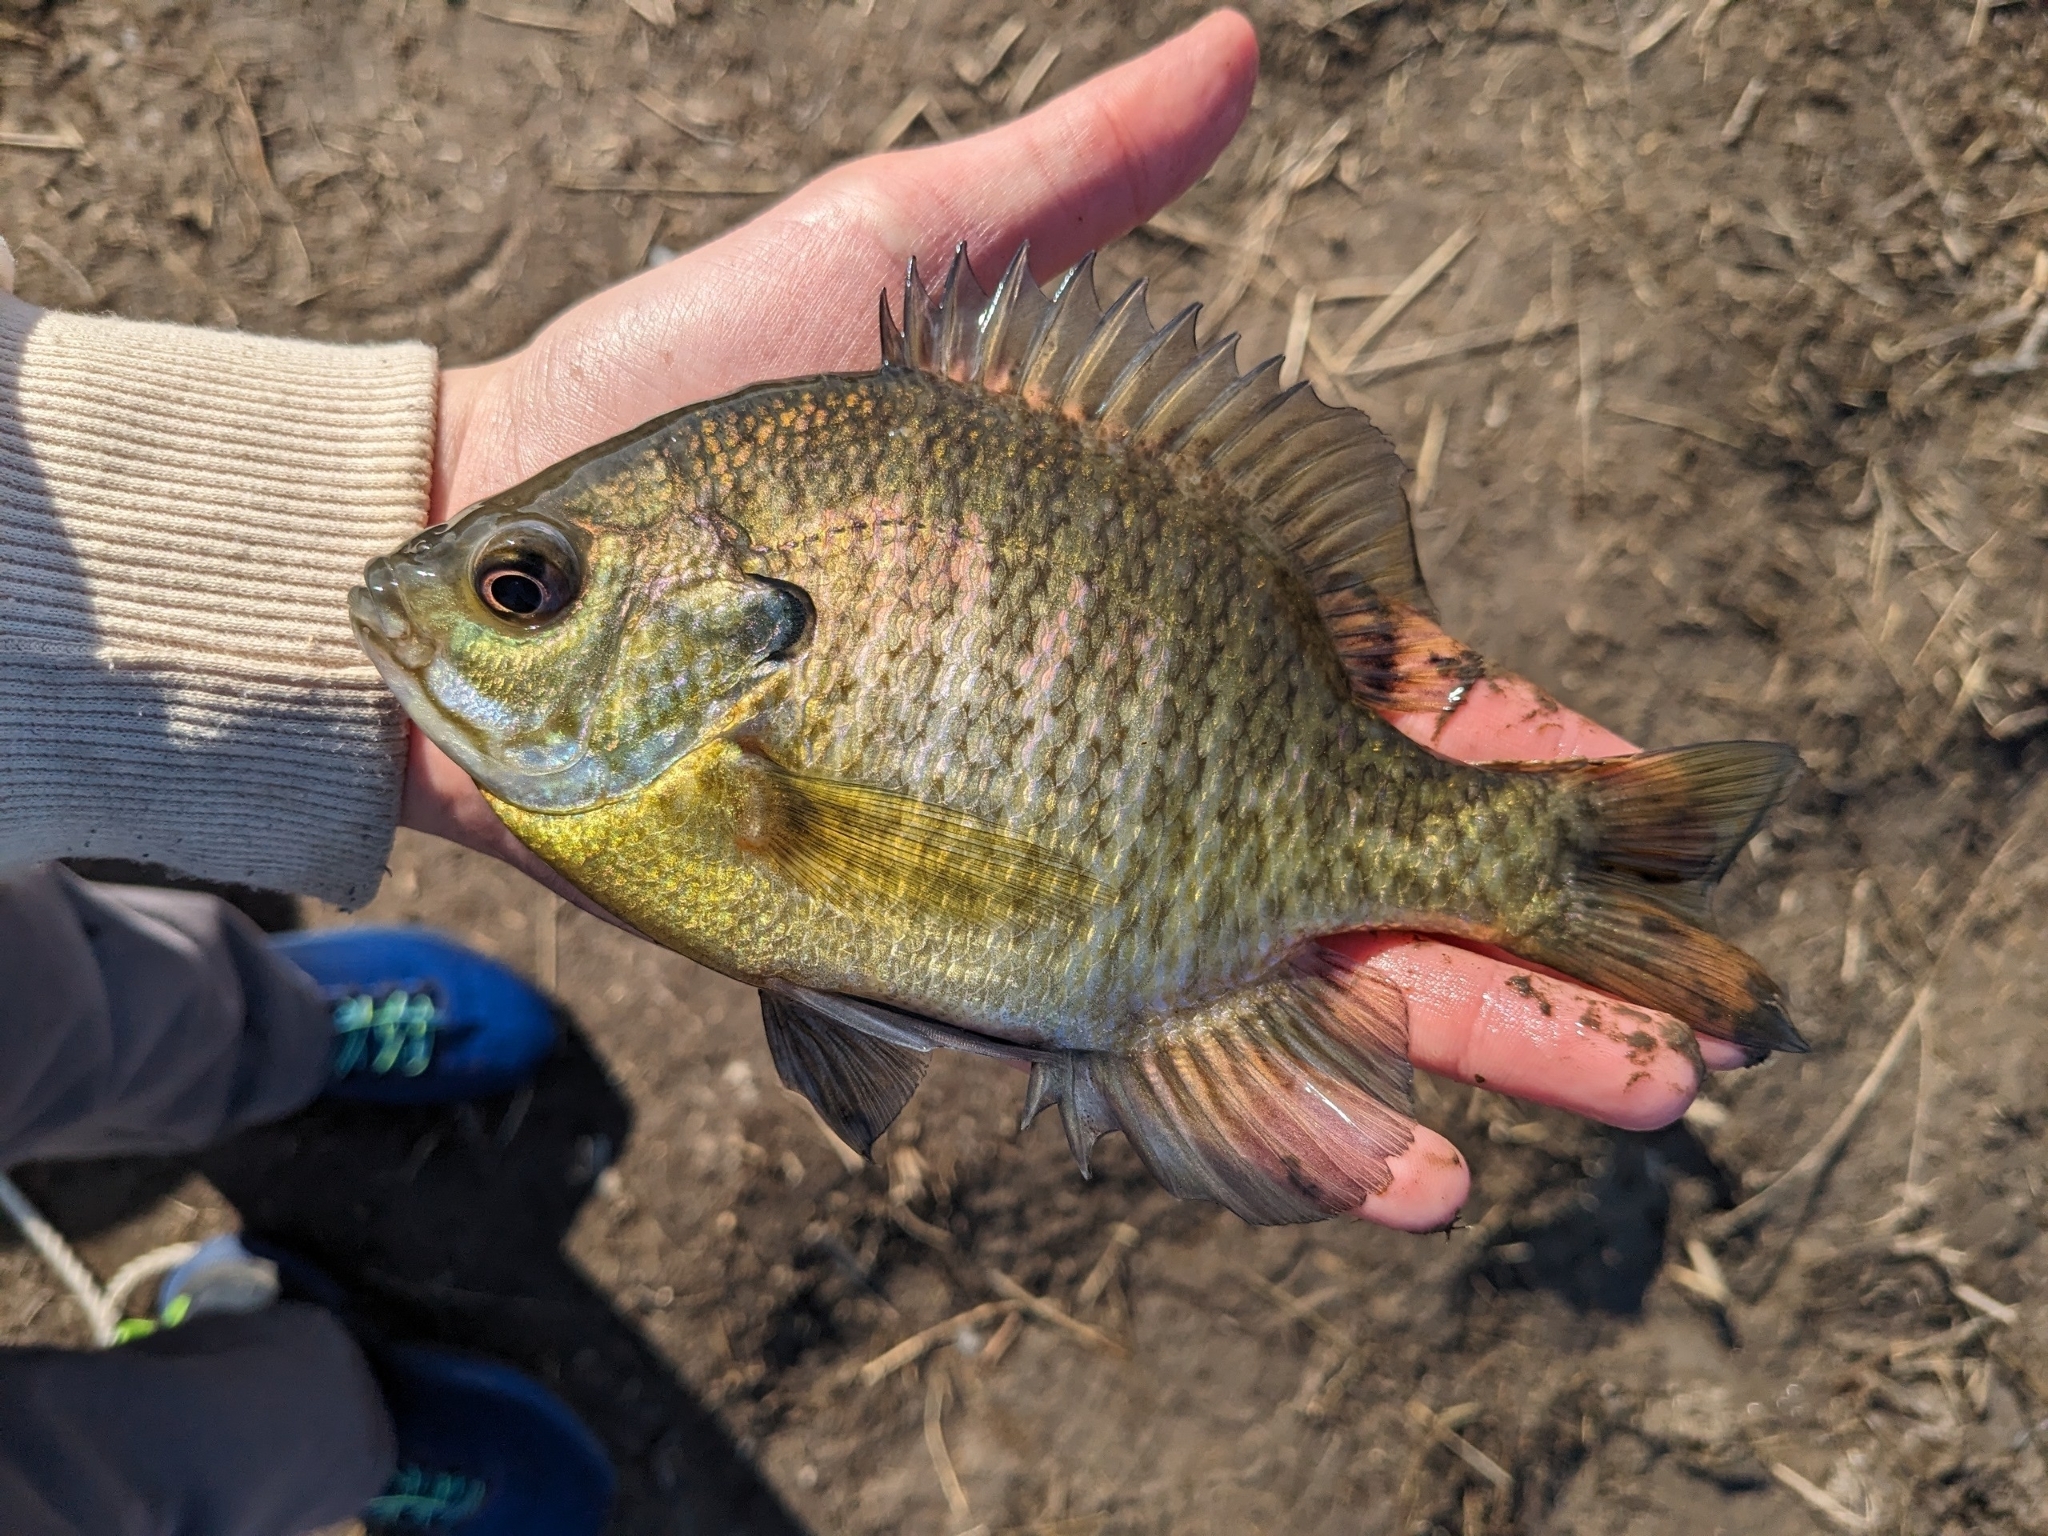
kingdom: Animalia
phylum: Chordata
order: Perciformes
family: Centrarchidae
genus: Lepomis
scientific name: Lepomis macrochirus
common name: Bluegill
